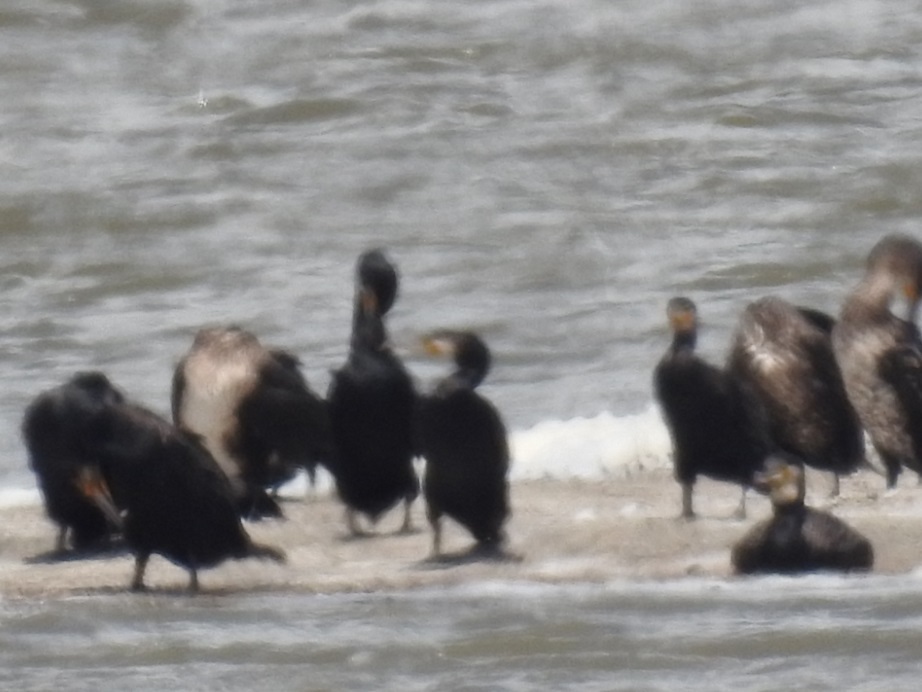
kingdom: Animalia
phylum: Chordata
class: Aves
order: Suliformes
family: Phalacrocoracidae
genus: Phalacrocorax
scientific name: Phalacrocorax carbo
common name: Great cormorant
